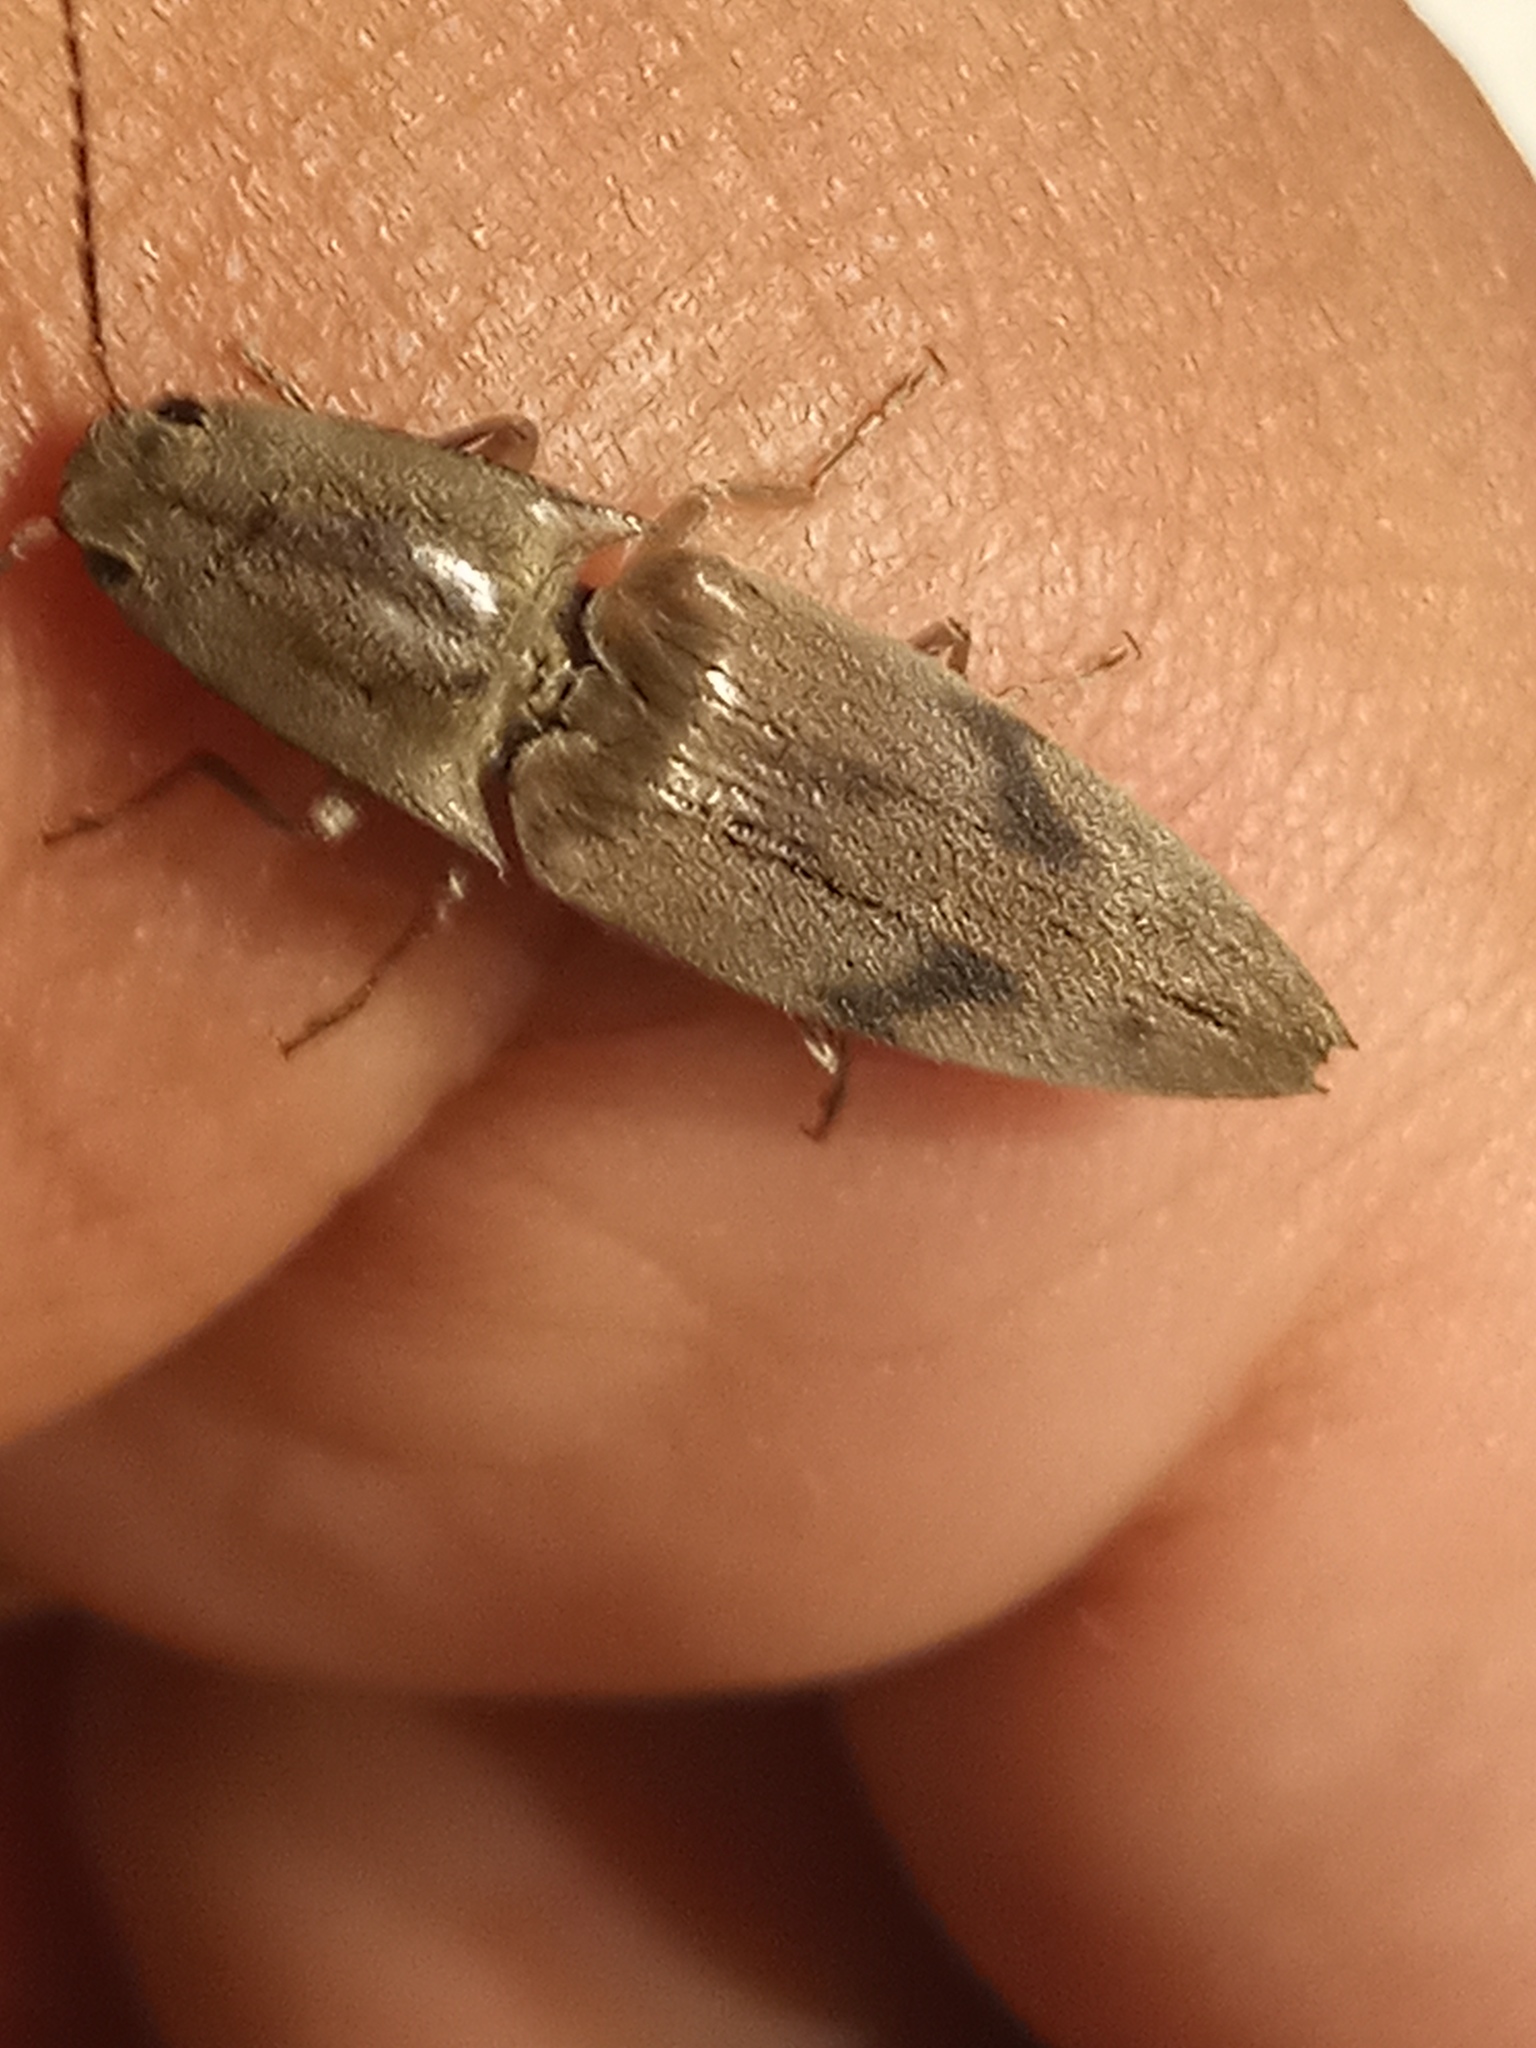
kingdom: Animalia
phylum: Arthropoda
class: Insecta
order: Coleoptera
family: Elateridae
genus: Monocrepidius
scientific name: Monocrepidius
